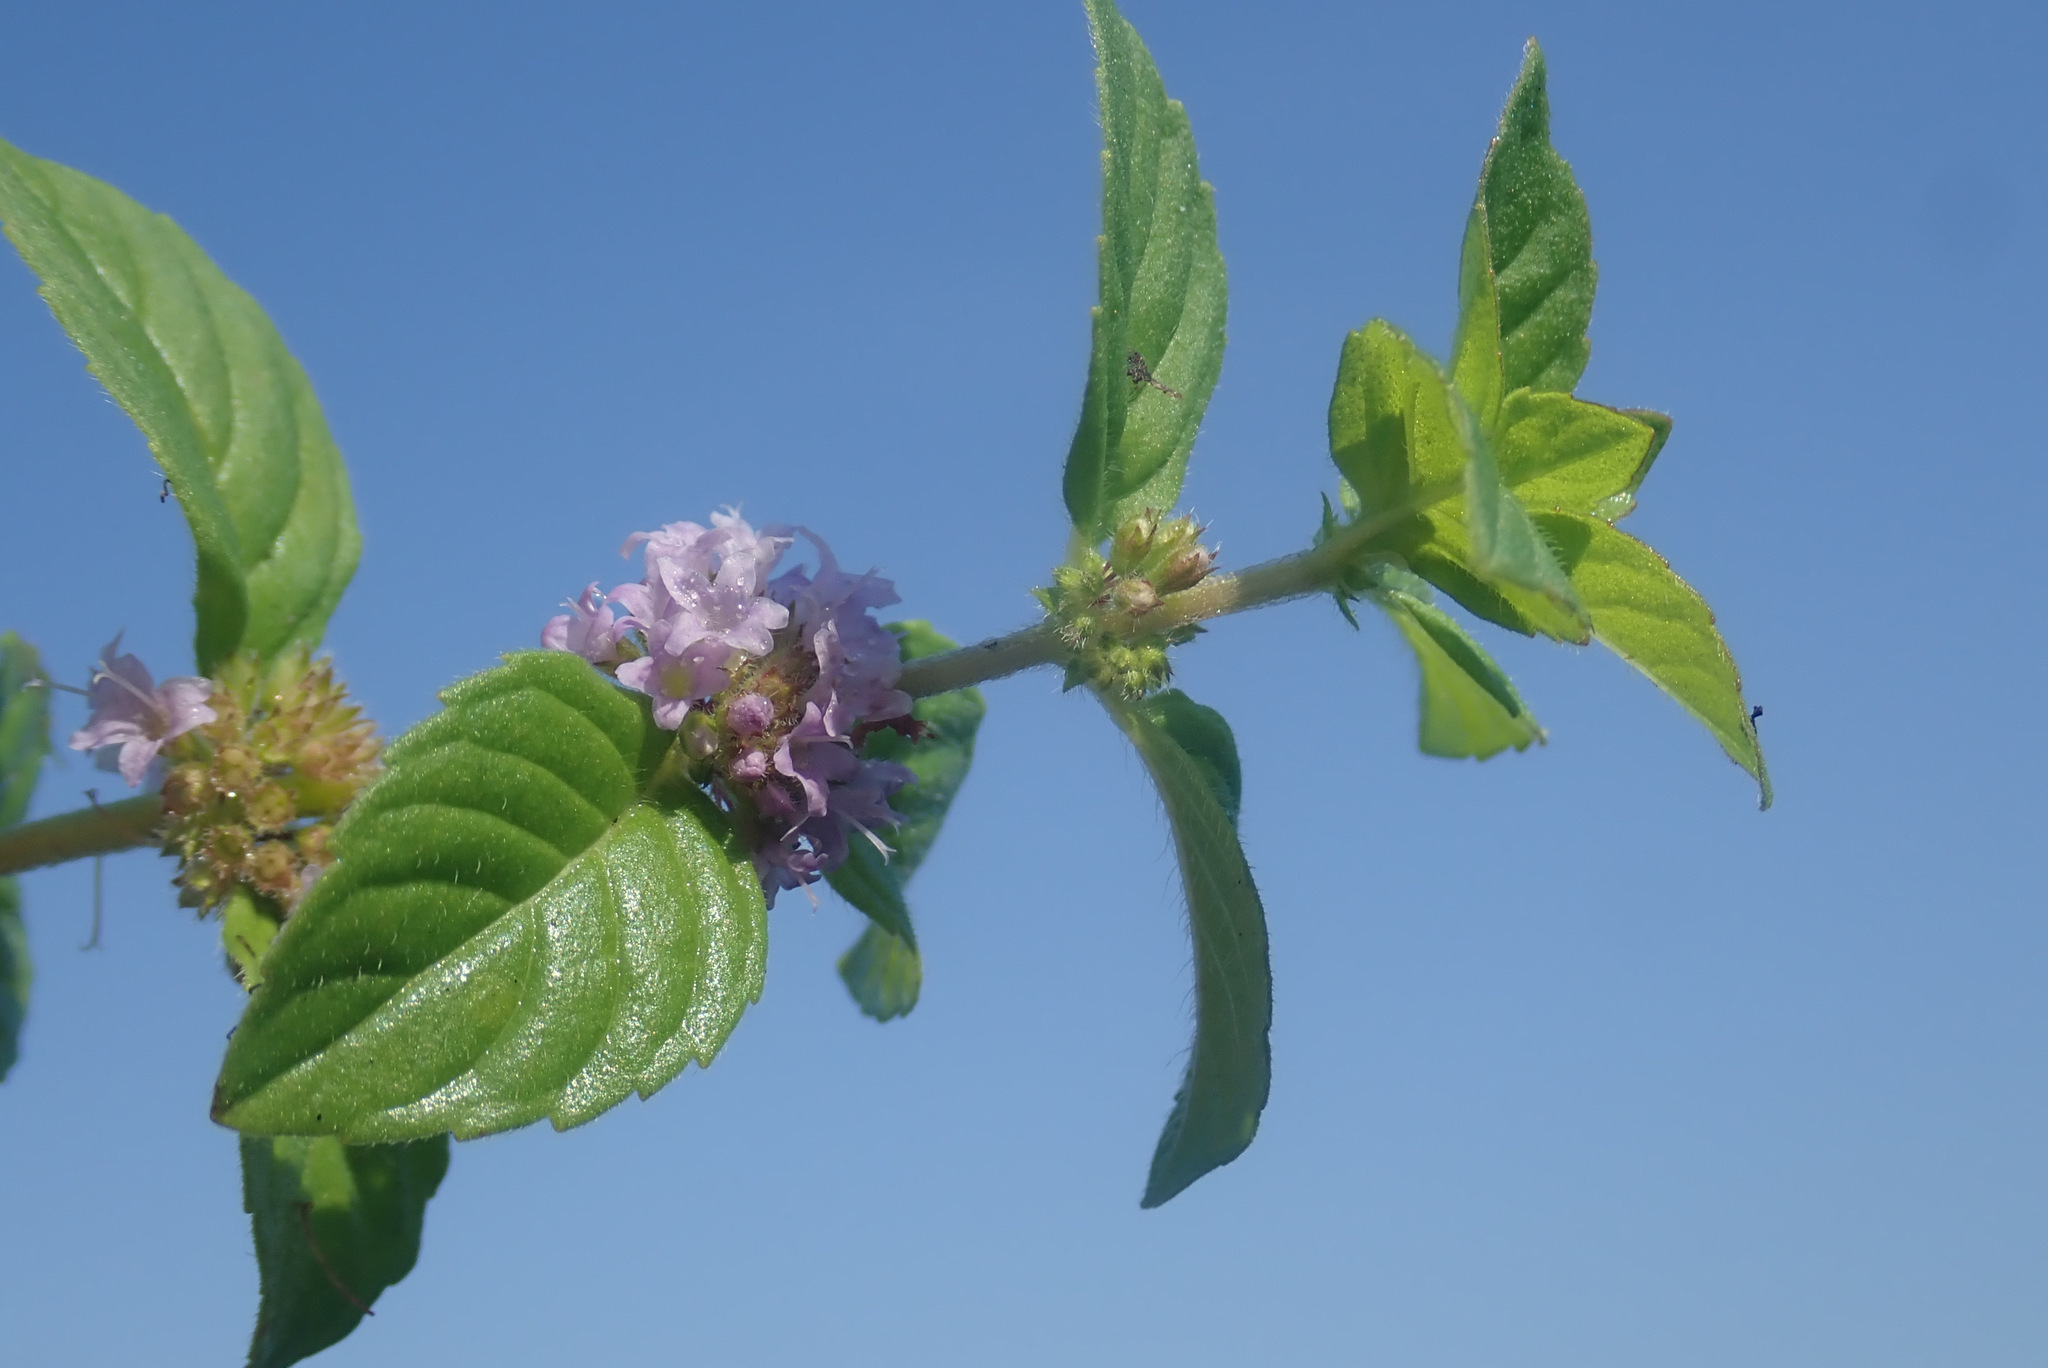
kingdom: Plantae
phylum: Tracheophyta
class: Magnoliopsida
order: Lamiales
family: Lamiaceae
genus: Mentha
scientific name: Mentha arvensis
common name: Corn mint
